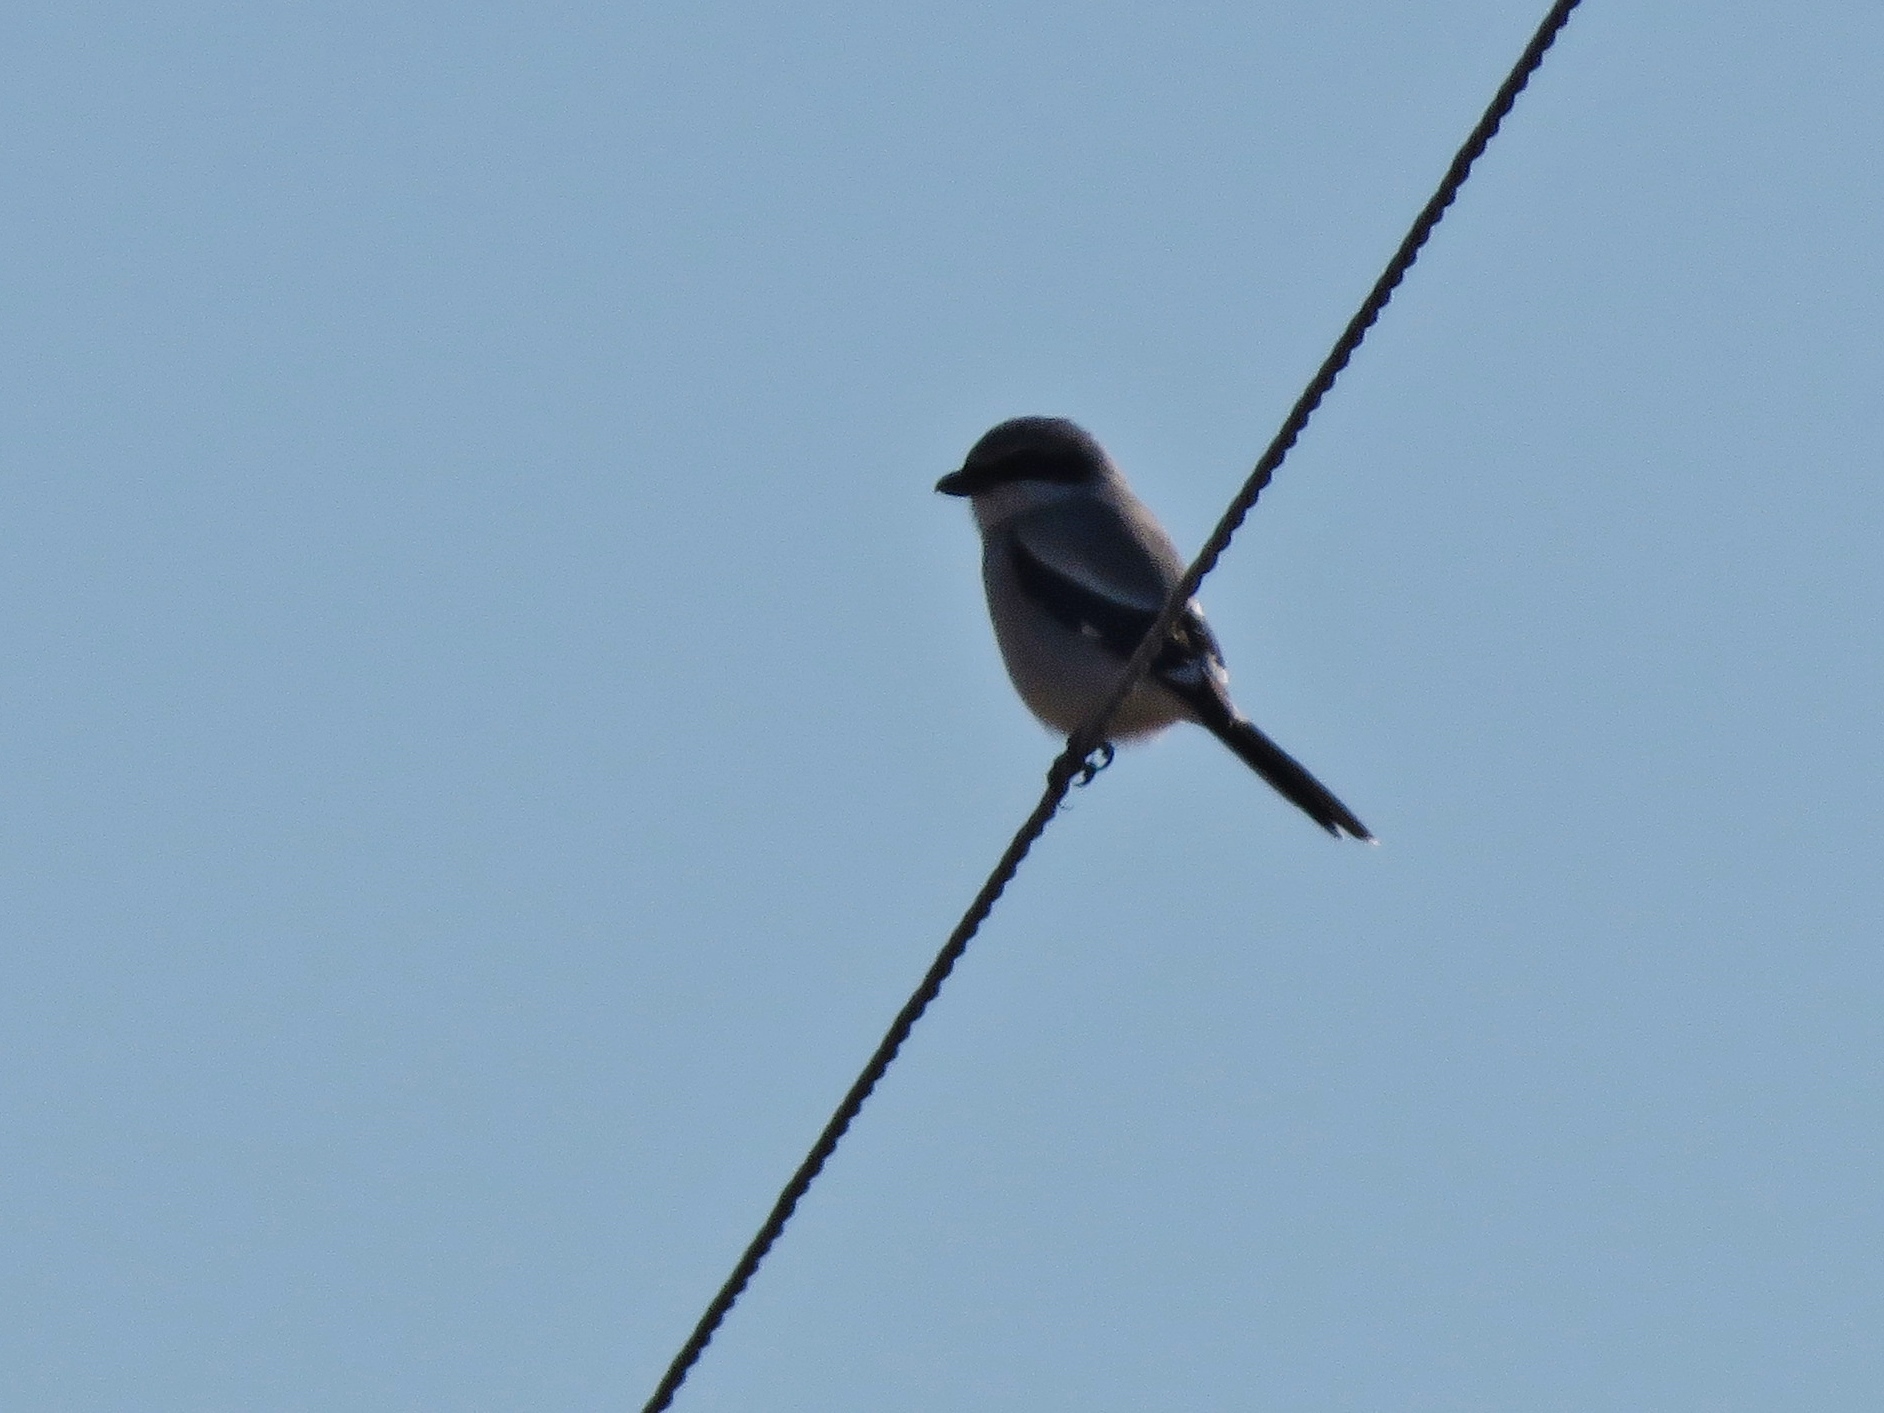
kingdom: Animalia
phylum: Chordata
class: Aves
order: Passeriformes
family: Laniidae
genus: Lanius
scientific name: Lanius ludovicianus
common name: Loggerhead shrike
